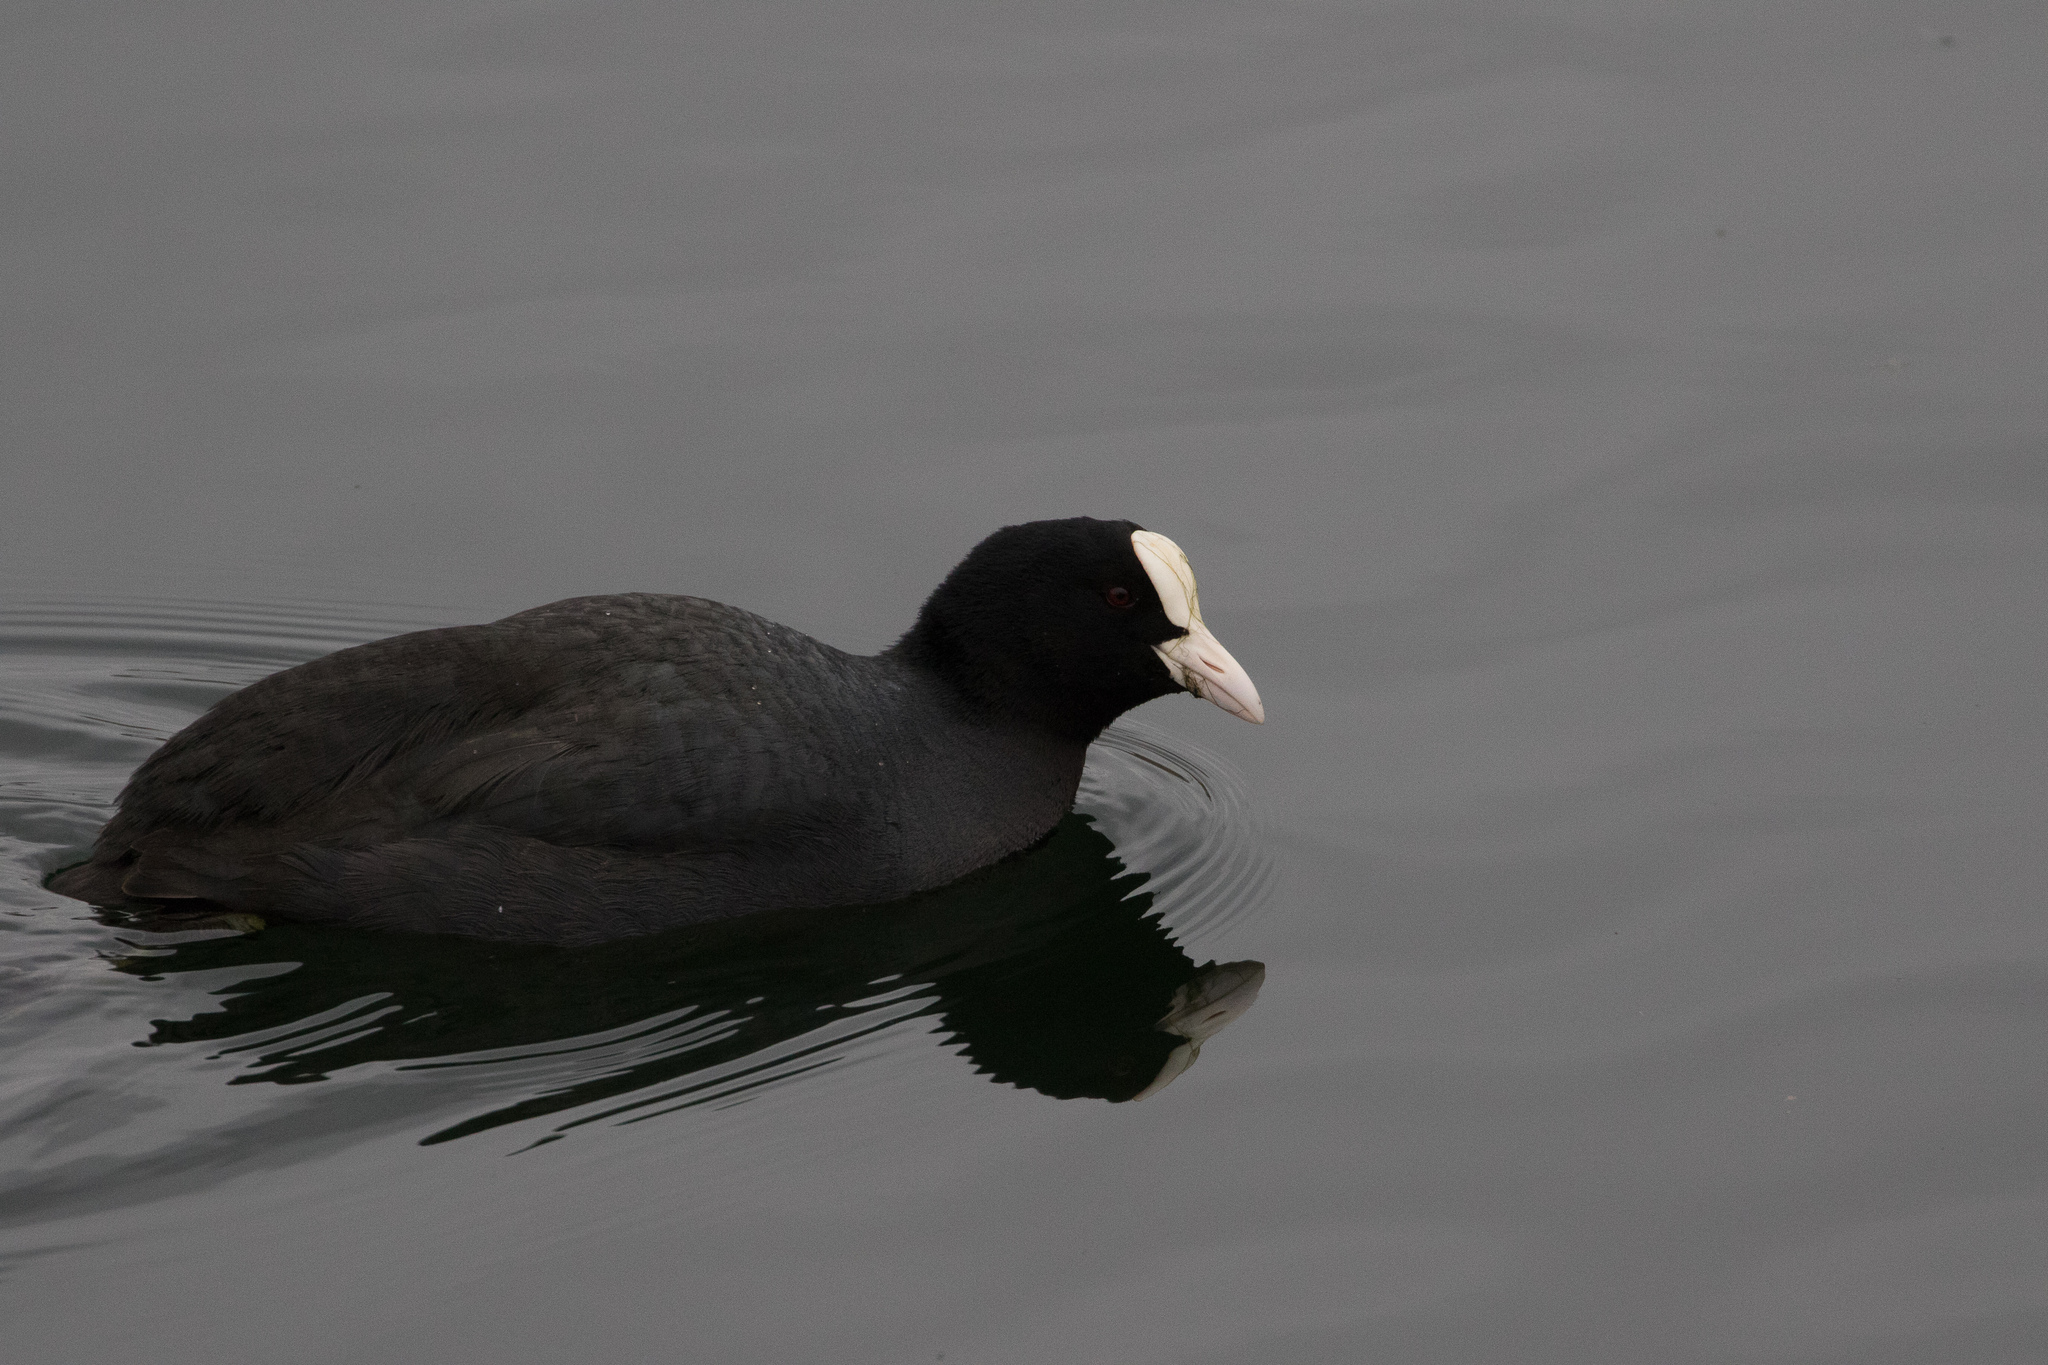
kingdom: Animalia
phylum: Chordata
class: Aves
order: Gruiformes
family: Rallidae
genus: Fulica
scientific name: Fulica atra
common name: Eurasian coot
